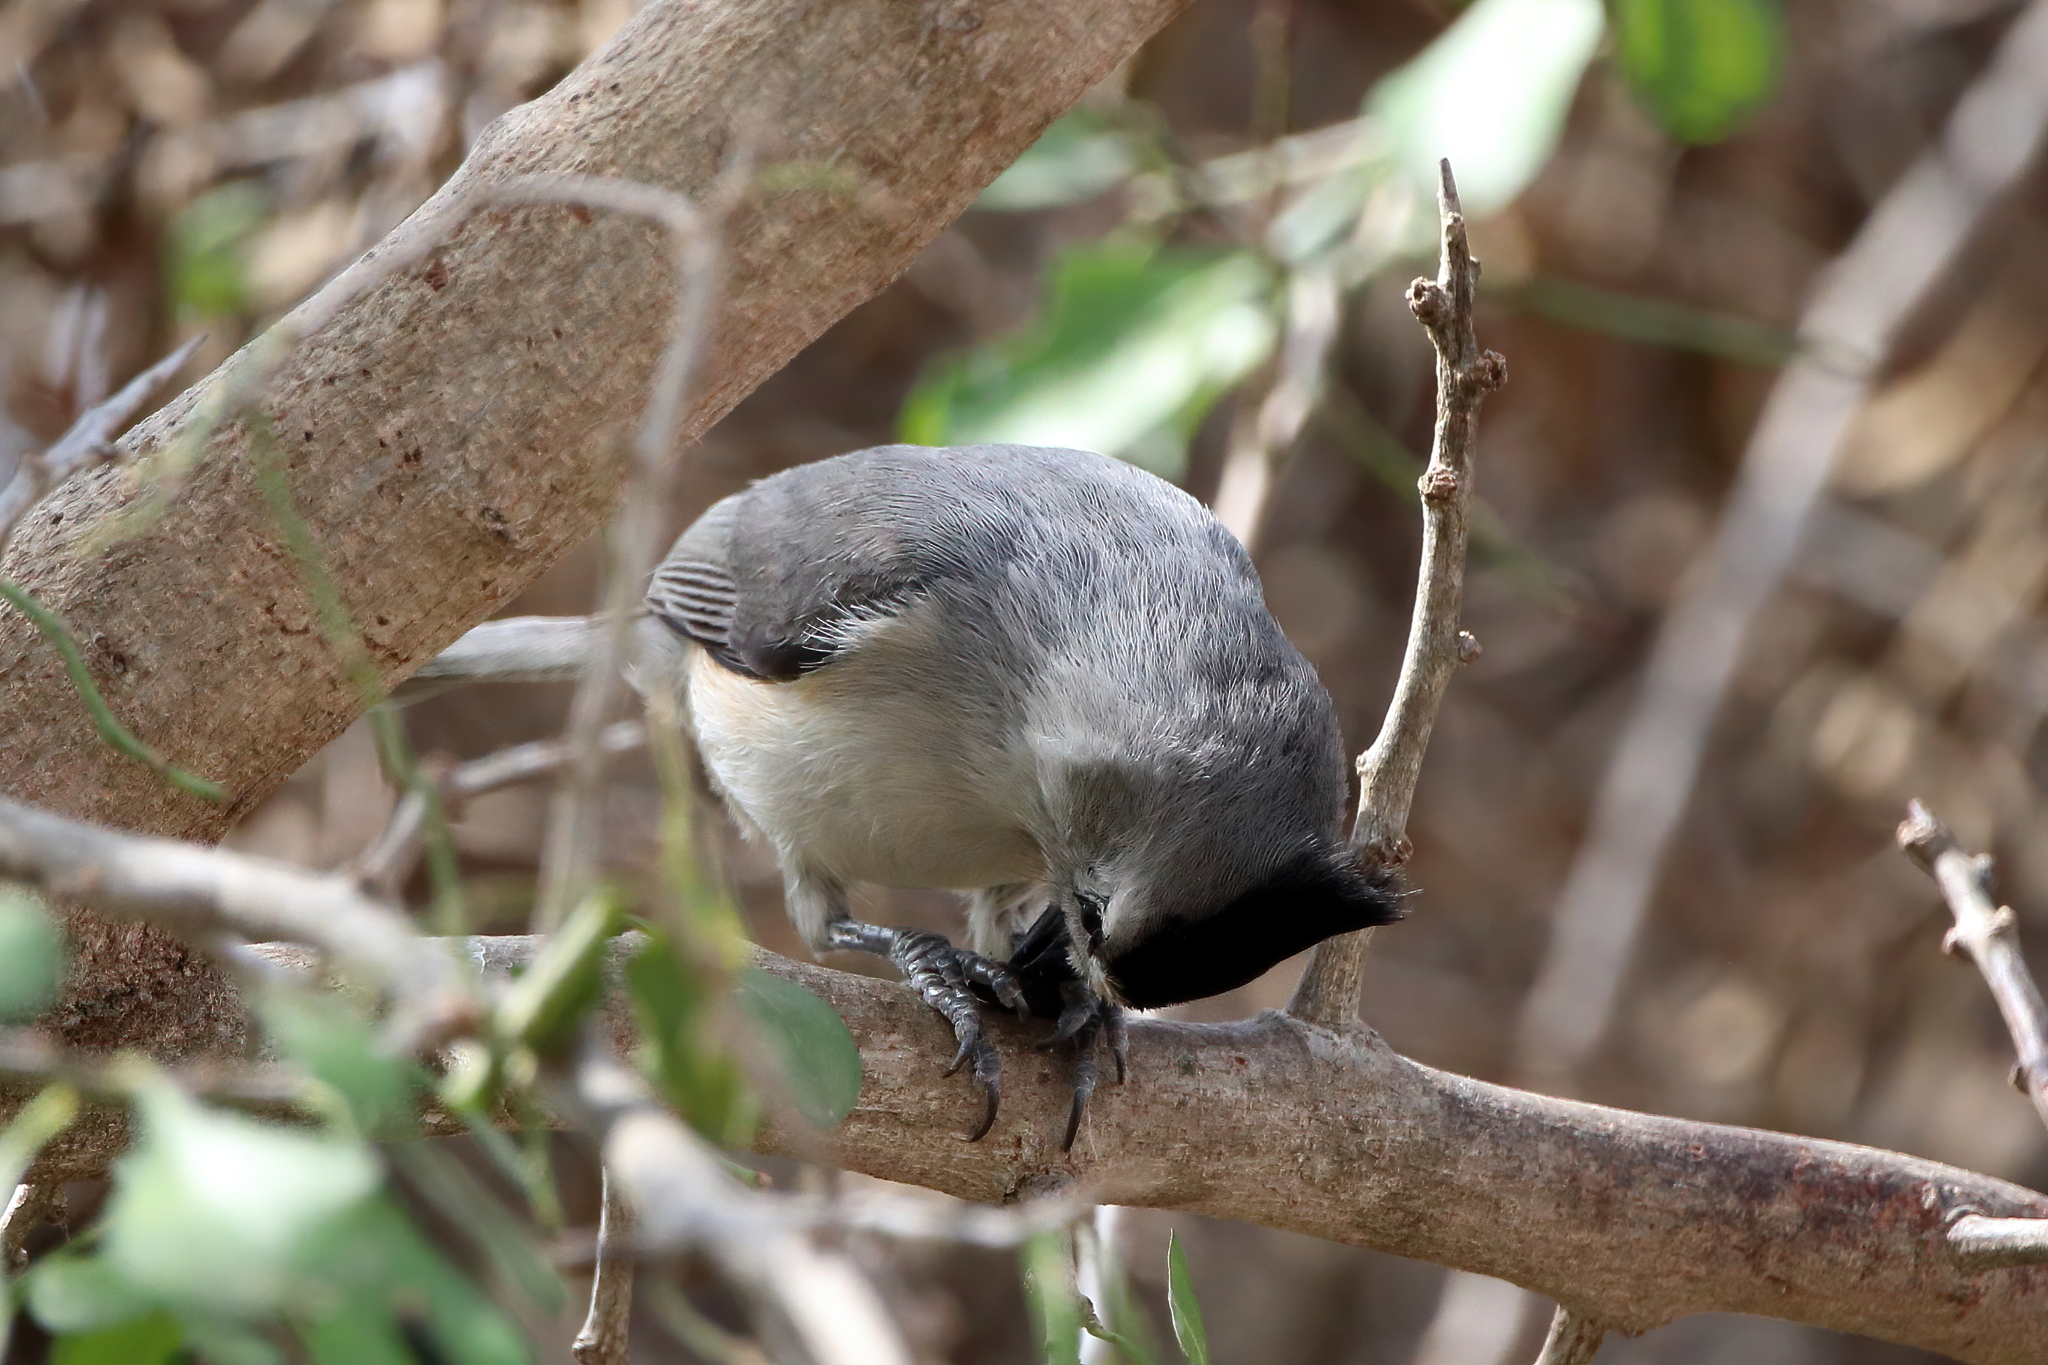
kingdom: Animalia
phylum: Chordata
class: Aves
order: Passeriformes
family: Paridae
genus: Baeolophus
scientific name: Baeolophus atricristatus
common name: Black-crested titmouse
